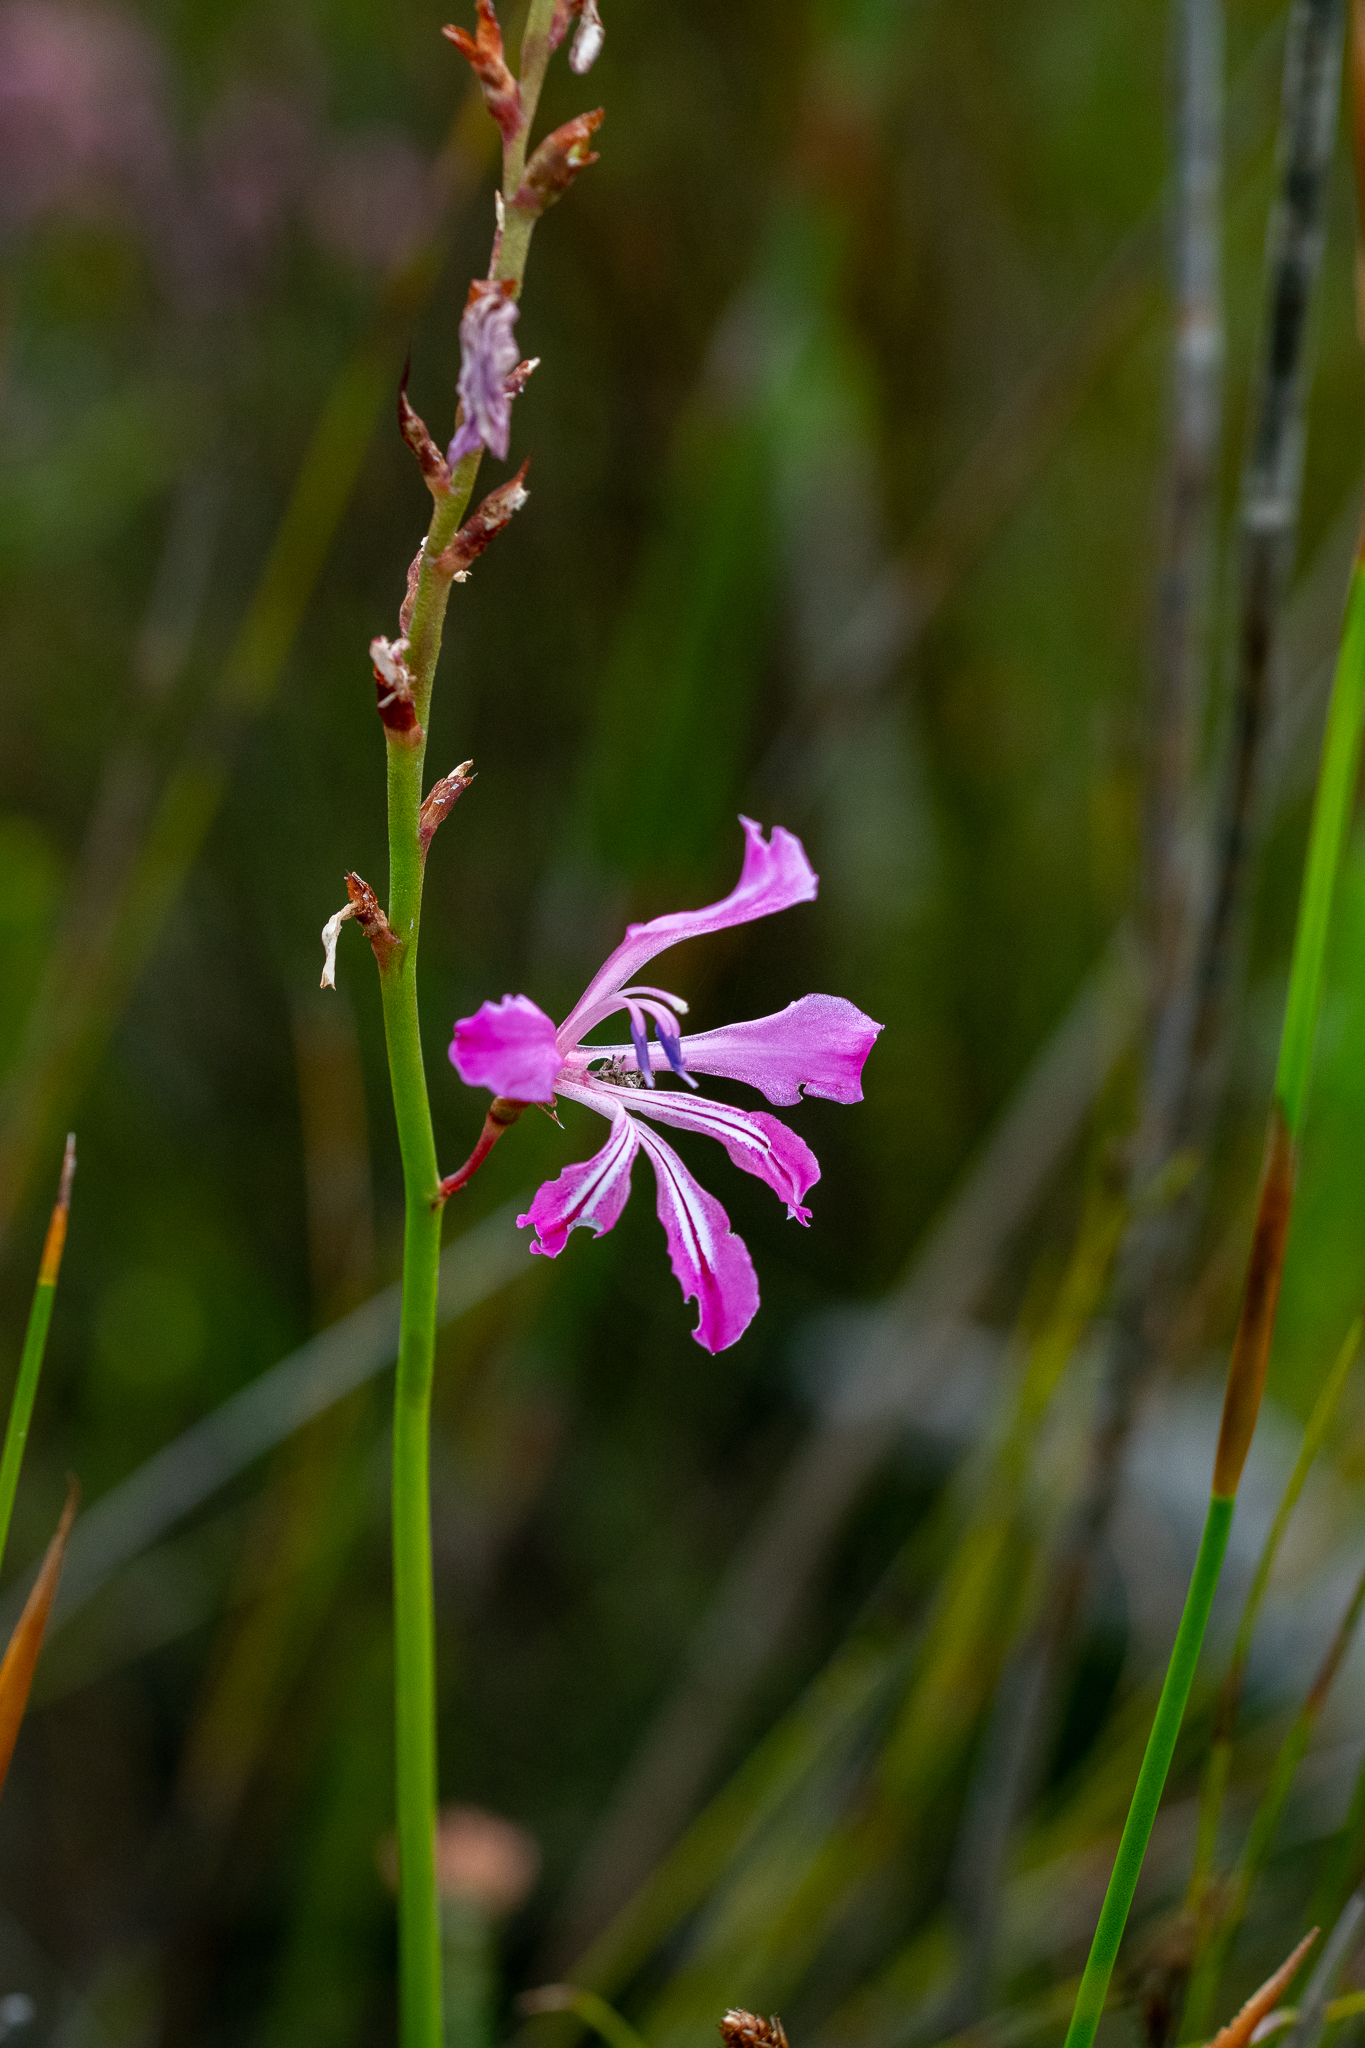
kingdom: Plantae
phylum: Tracheophyta
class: Liliopsida
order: Asparagales
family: Iridaceae
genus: Tritoniopsis
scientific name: Tritoniopsis lata
